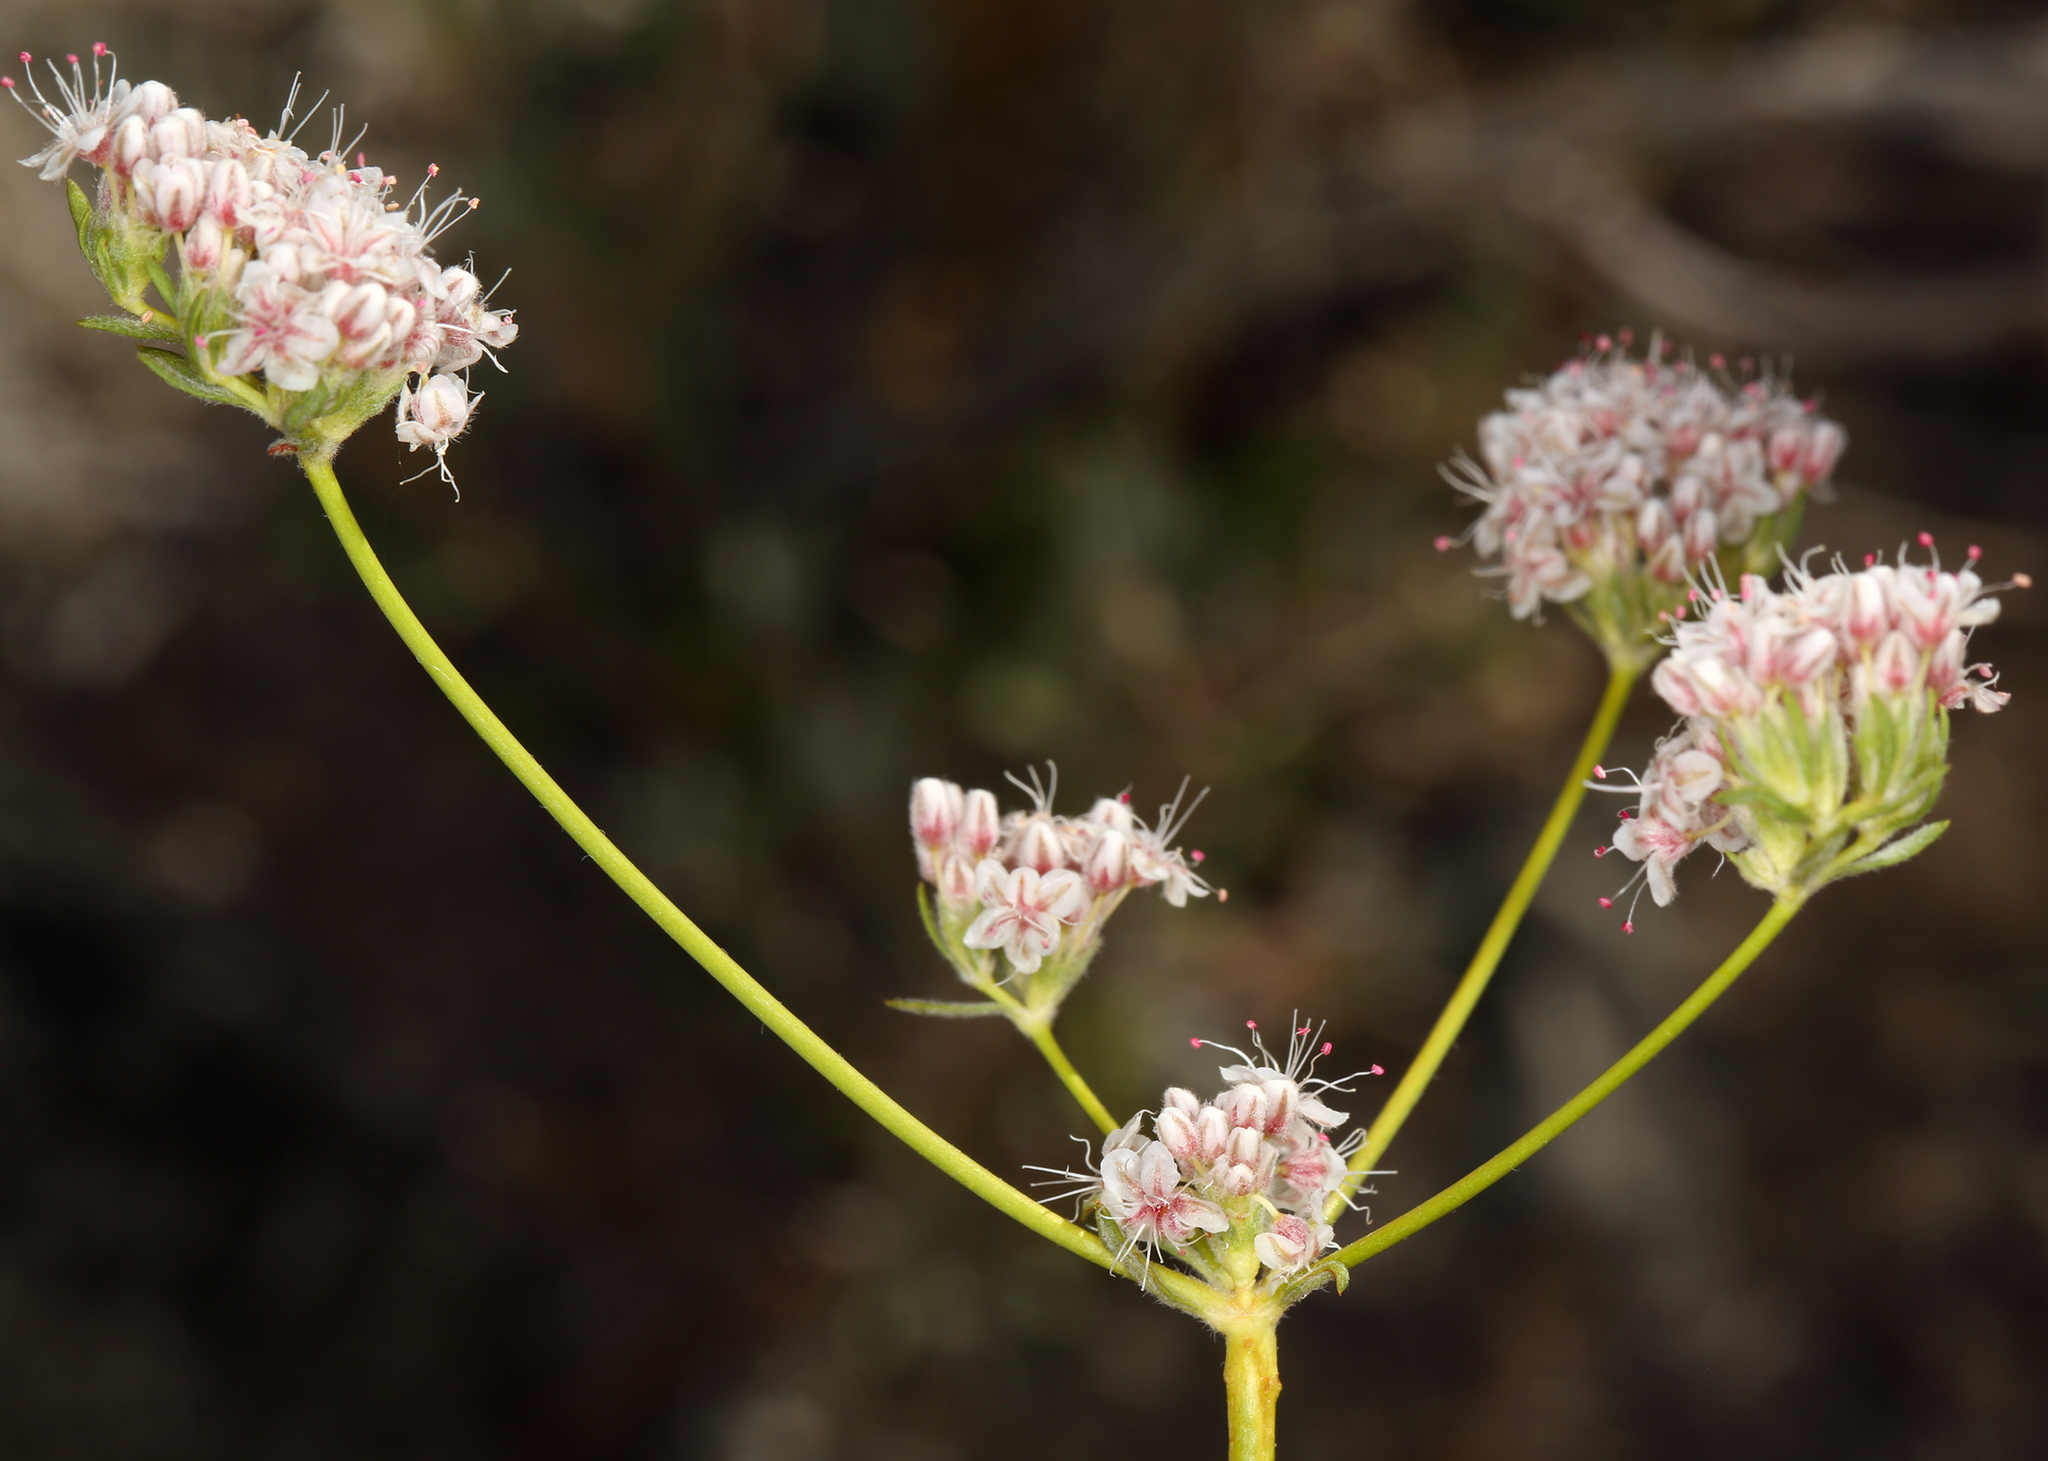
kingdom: Plantae
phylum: Tracheophyta
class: Magnoliopsida
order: Caryophyllales
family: Polygonaceae
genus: Eriogonum
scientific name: Eriogonum fasciculatum
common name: California wild buckwheat
